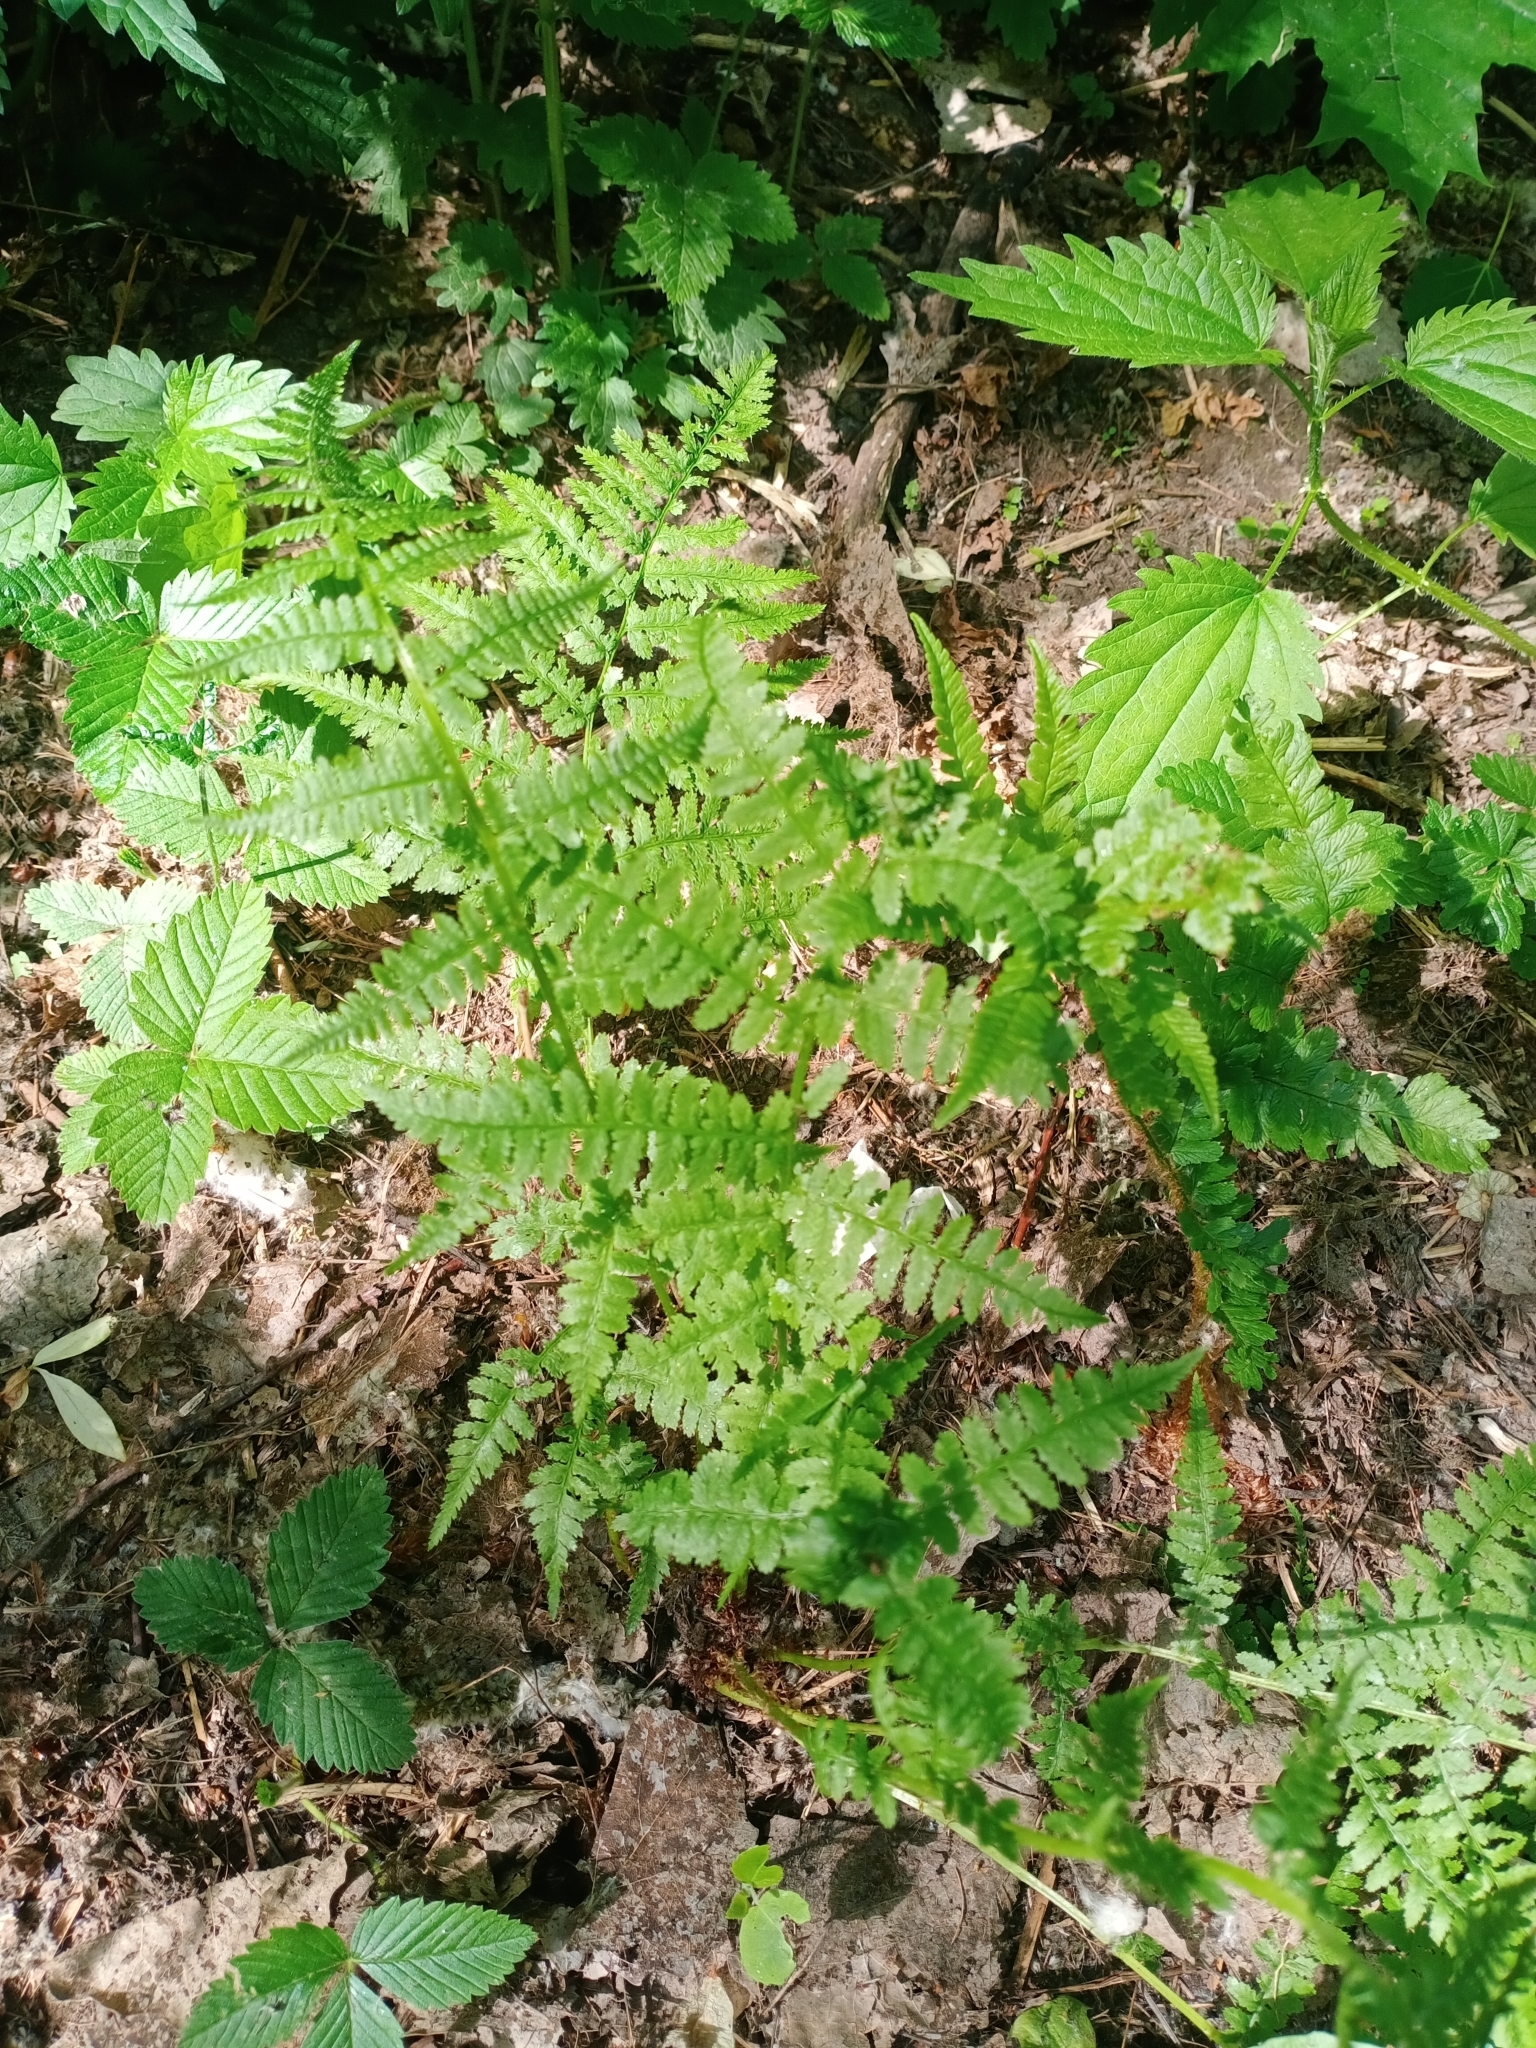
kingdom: Plantae
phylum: Tracheophyta
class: Polypodiopsida
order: Polypodiales
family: Athyriaceae
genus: Athyrium
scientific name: Athyrium filix-femina
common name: Lady fern
